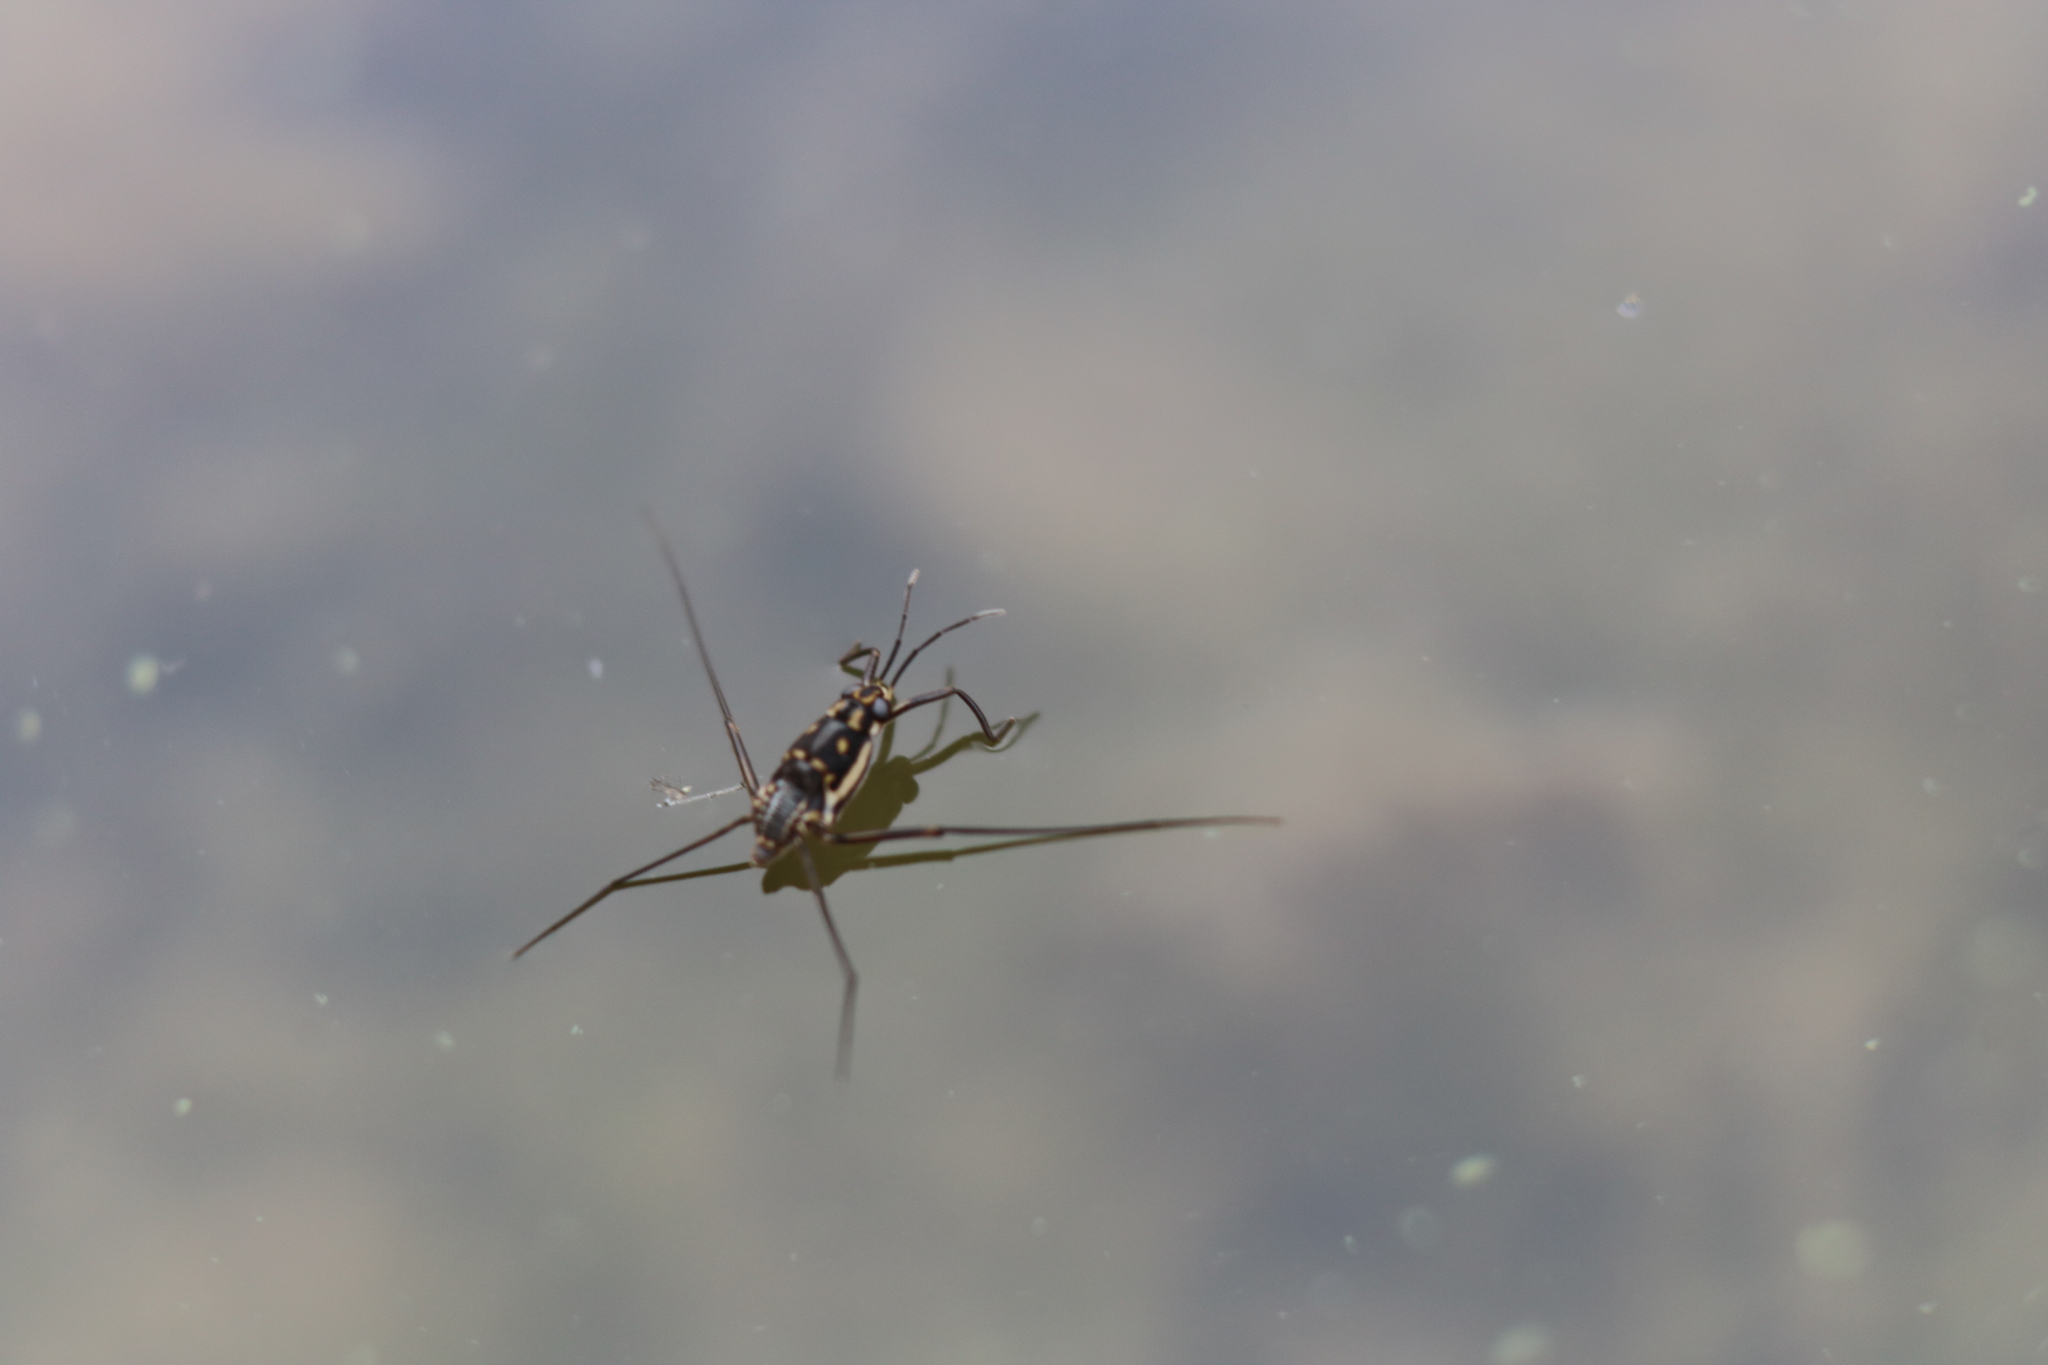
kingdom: Animalia
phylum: Arthropoda
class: Insecta
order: Hemiptera
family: Gerridae
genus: Trepobates
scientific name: Trepobates subnitidus
